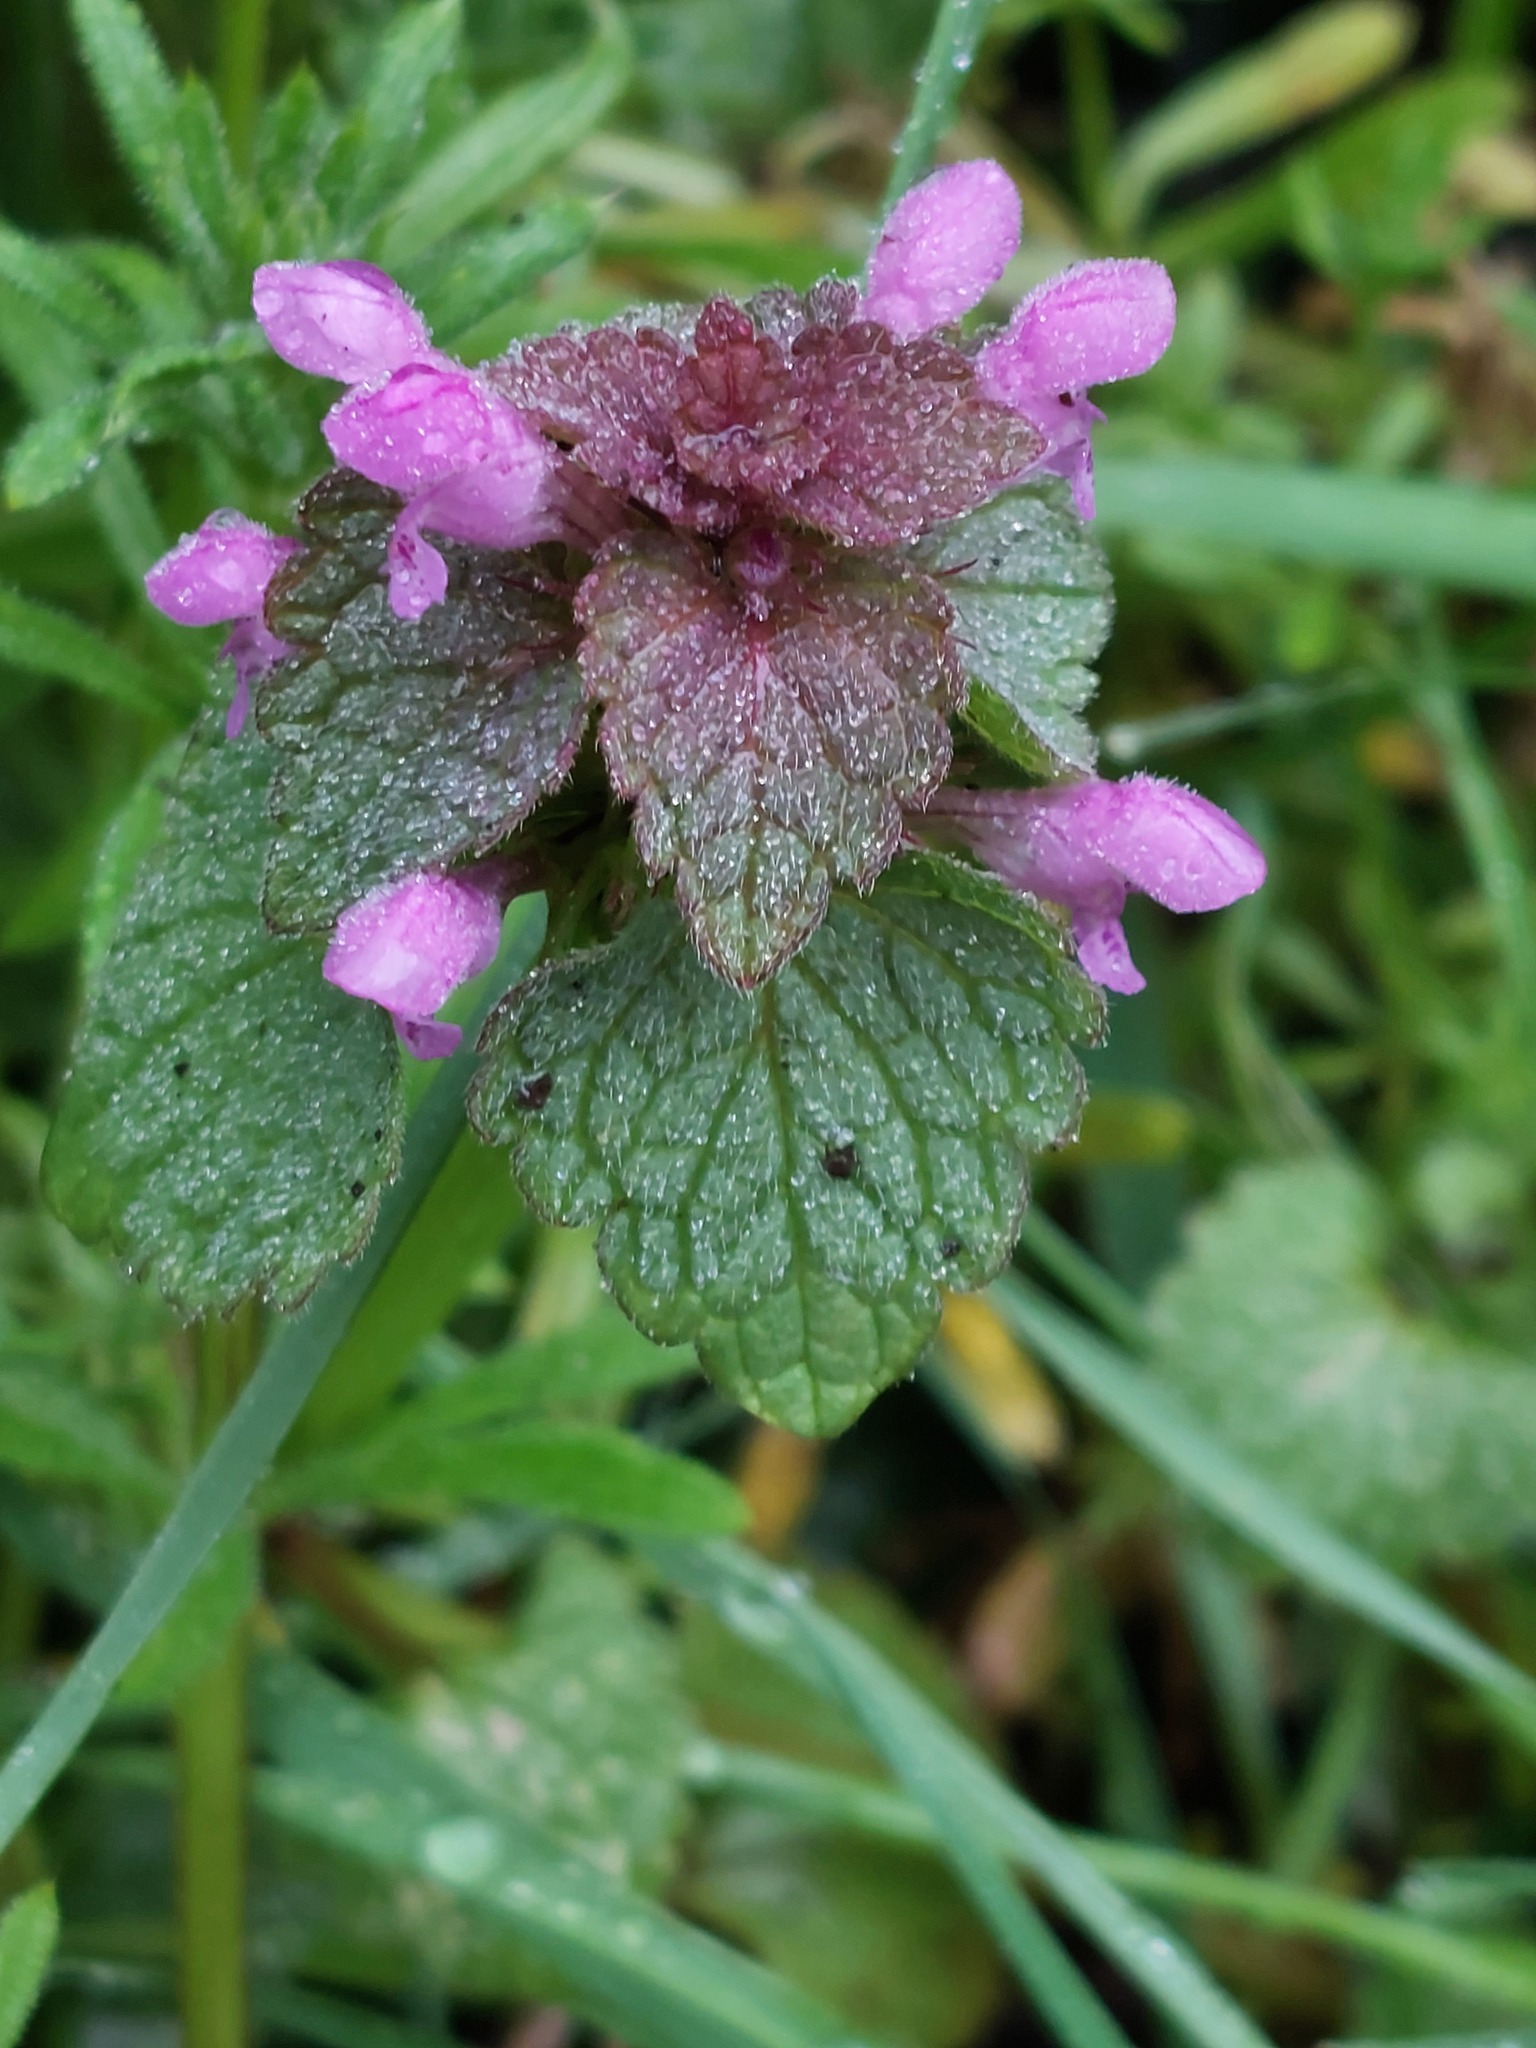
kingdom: Plantae
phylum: Tracheophyta
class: Magnoliopsida
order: Lamiales
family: Lamiaceae
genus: Lamium
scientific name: Lamium purpureum
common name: Red dead-nettle
